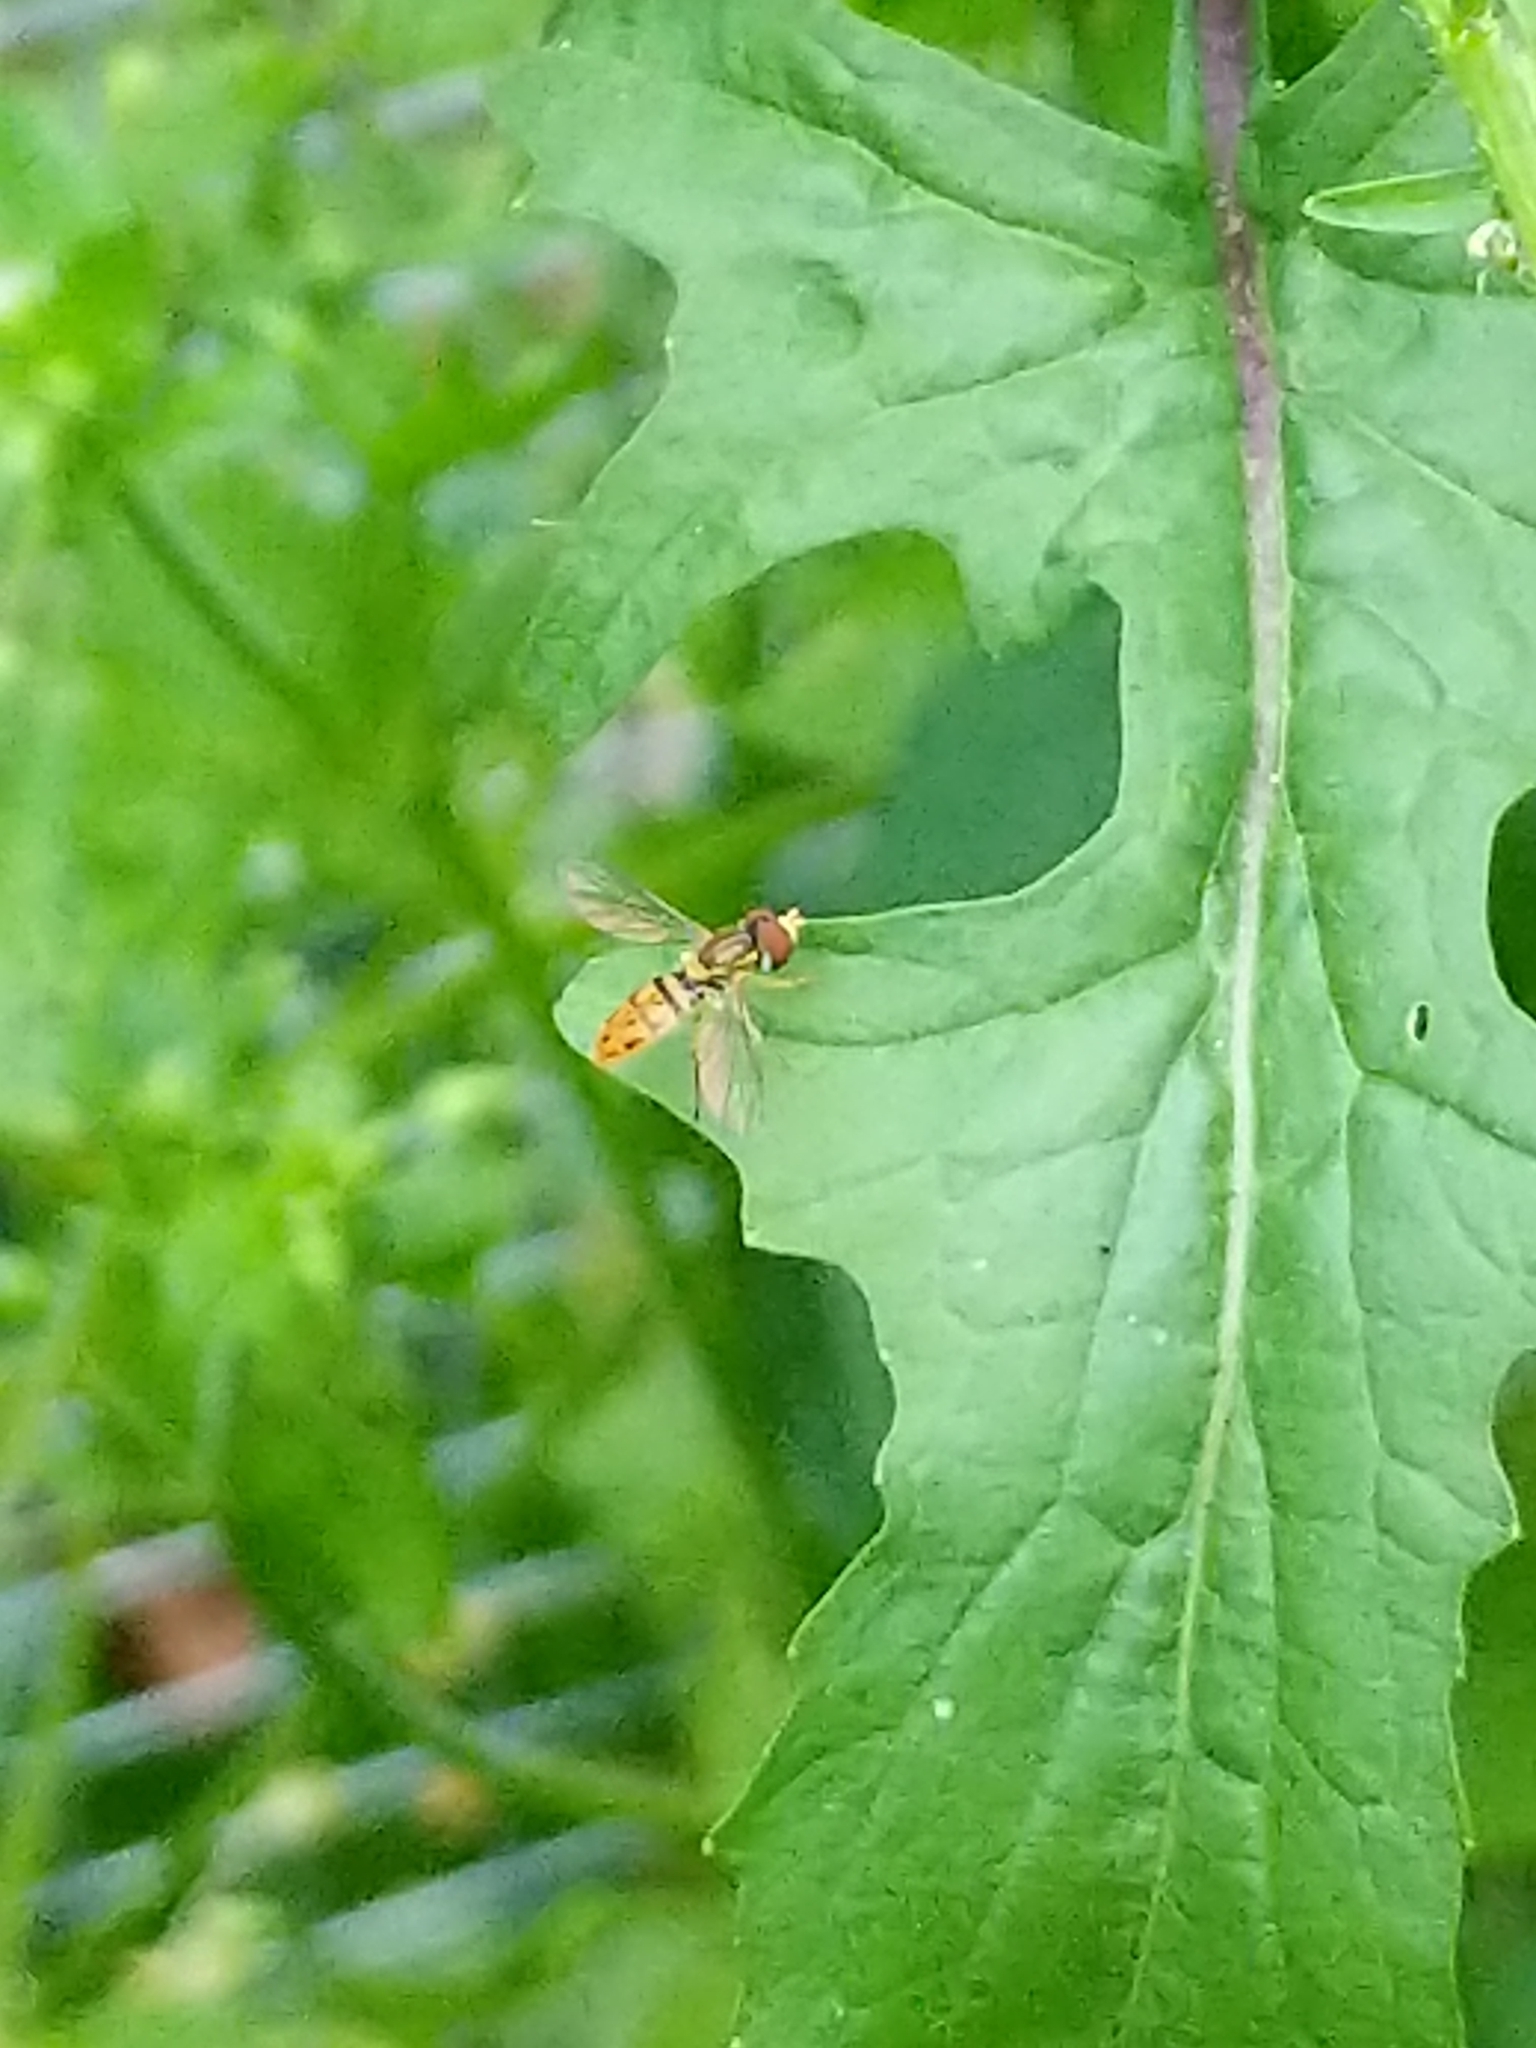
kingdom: Animalia
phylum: Arthropoda
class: Insecta
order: Diptera
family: Syrphidae
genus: Toxomerus
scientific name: Toxomerus marginatus
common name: Syrphid fly
